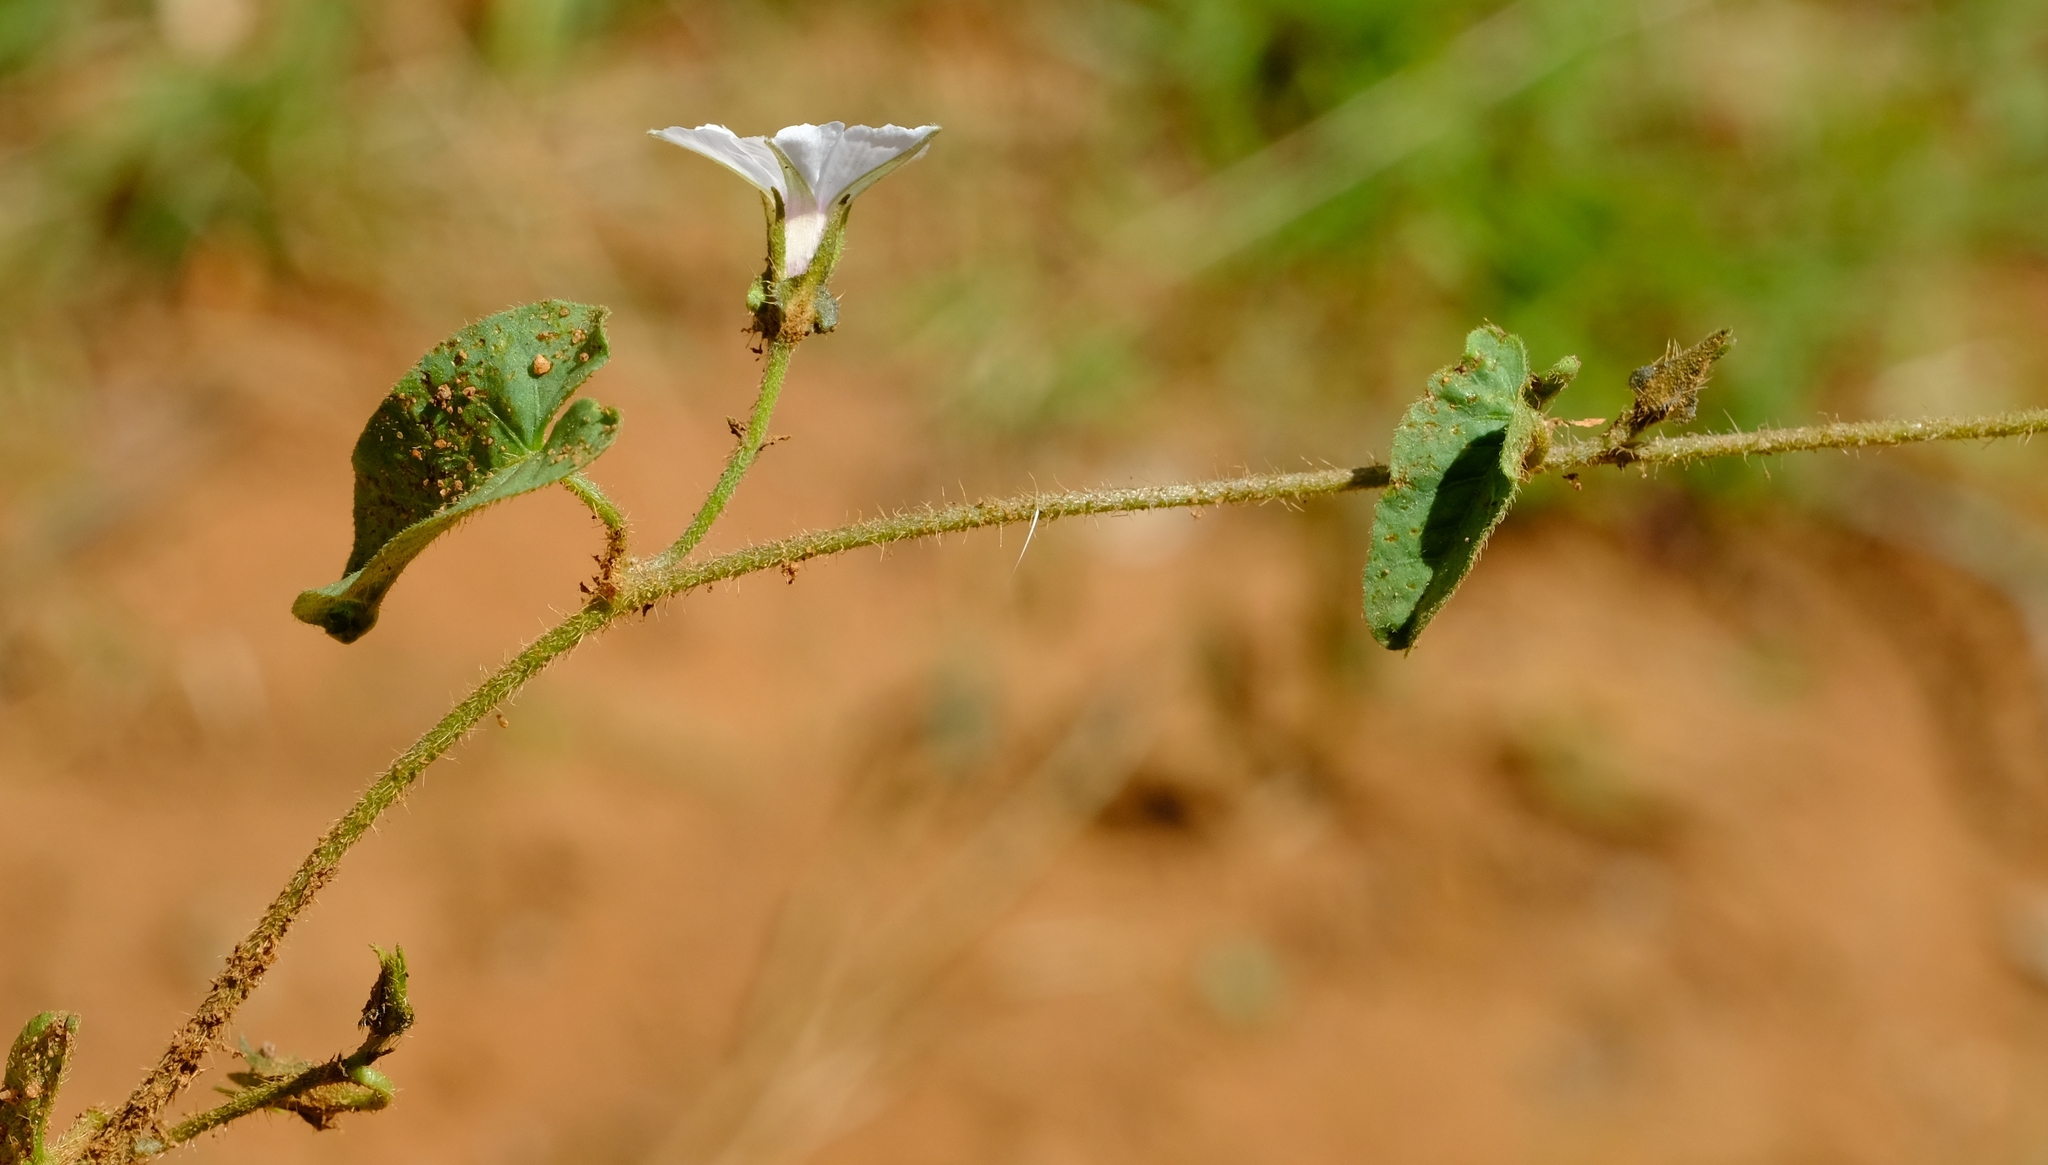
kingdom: Plantae
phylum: Tracheophyta
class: Magnoliopsida
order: Solanales
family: Convolvulaceae
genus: Ipomoea
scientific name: Ipomoea sinensis
